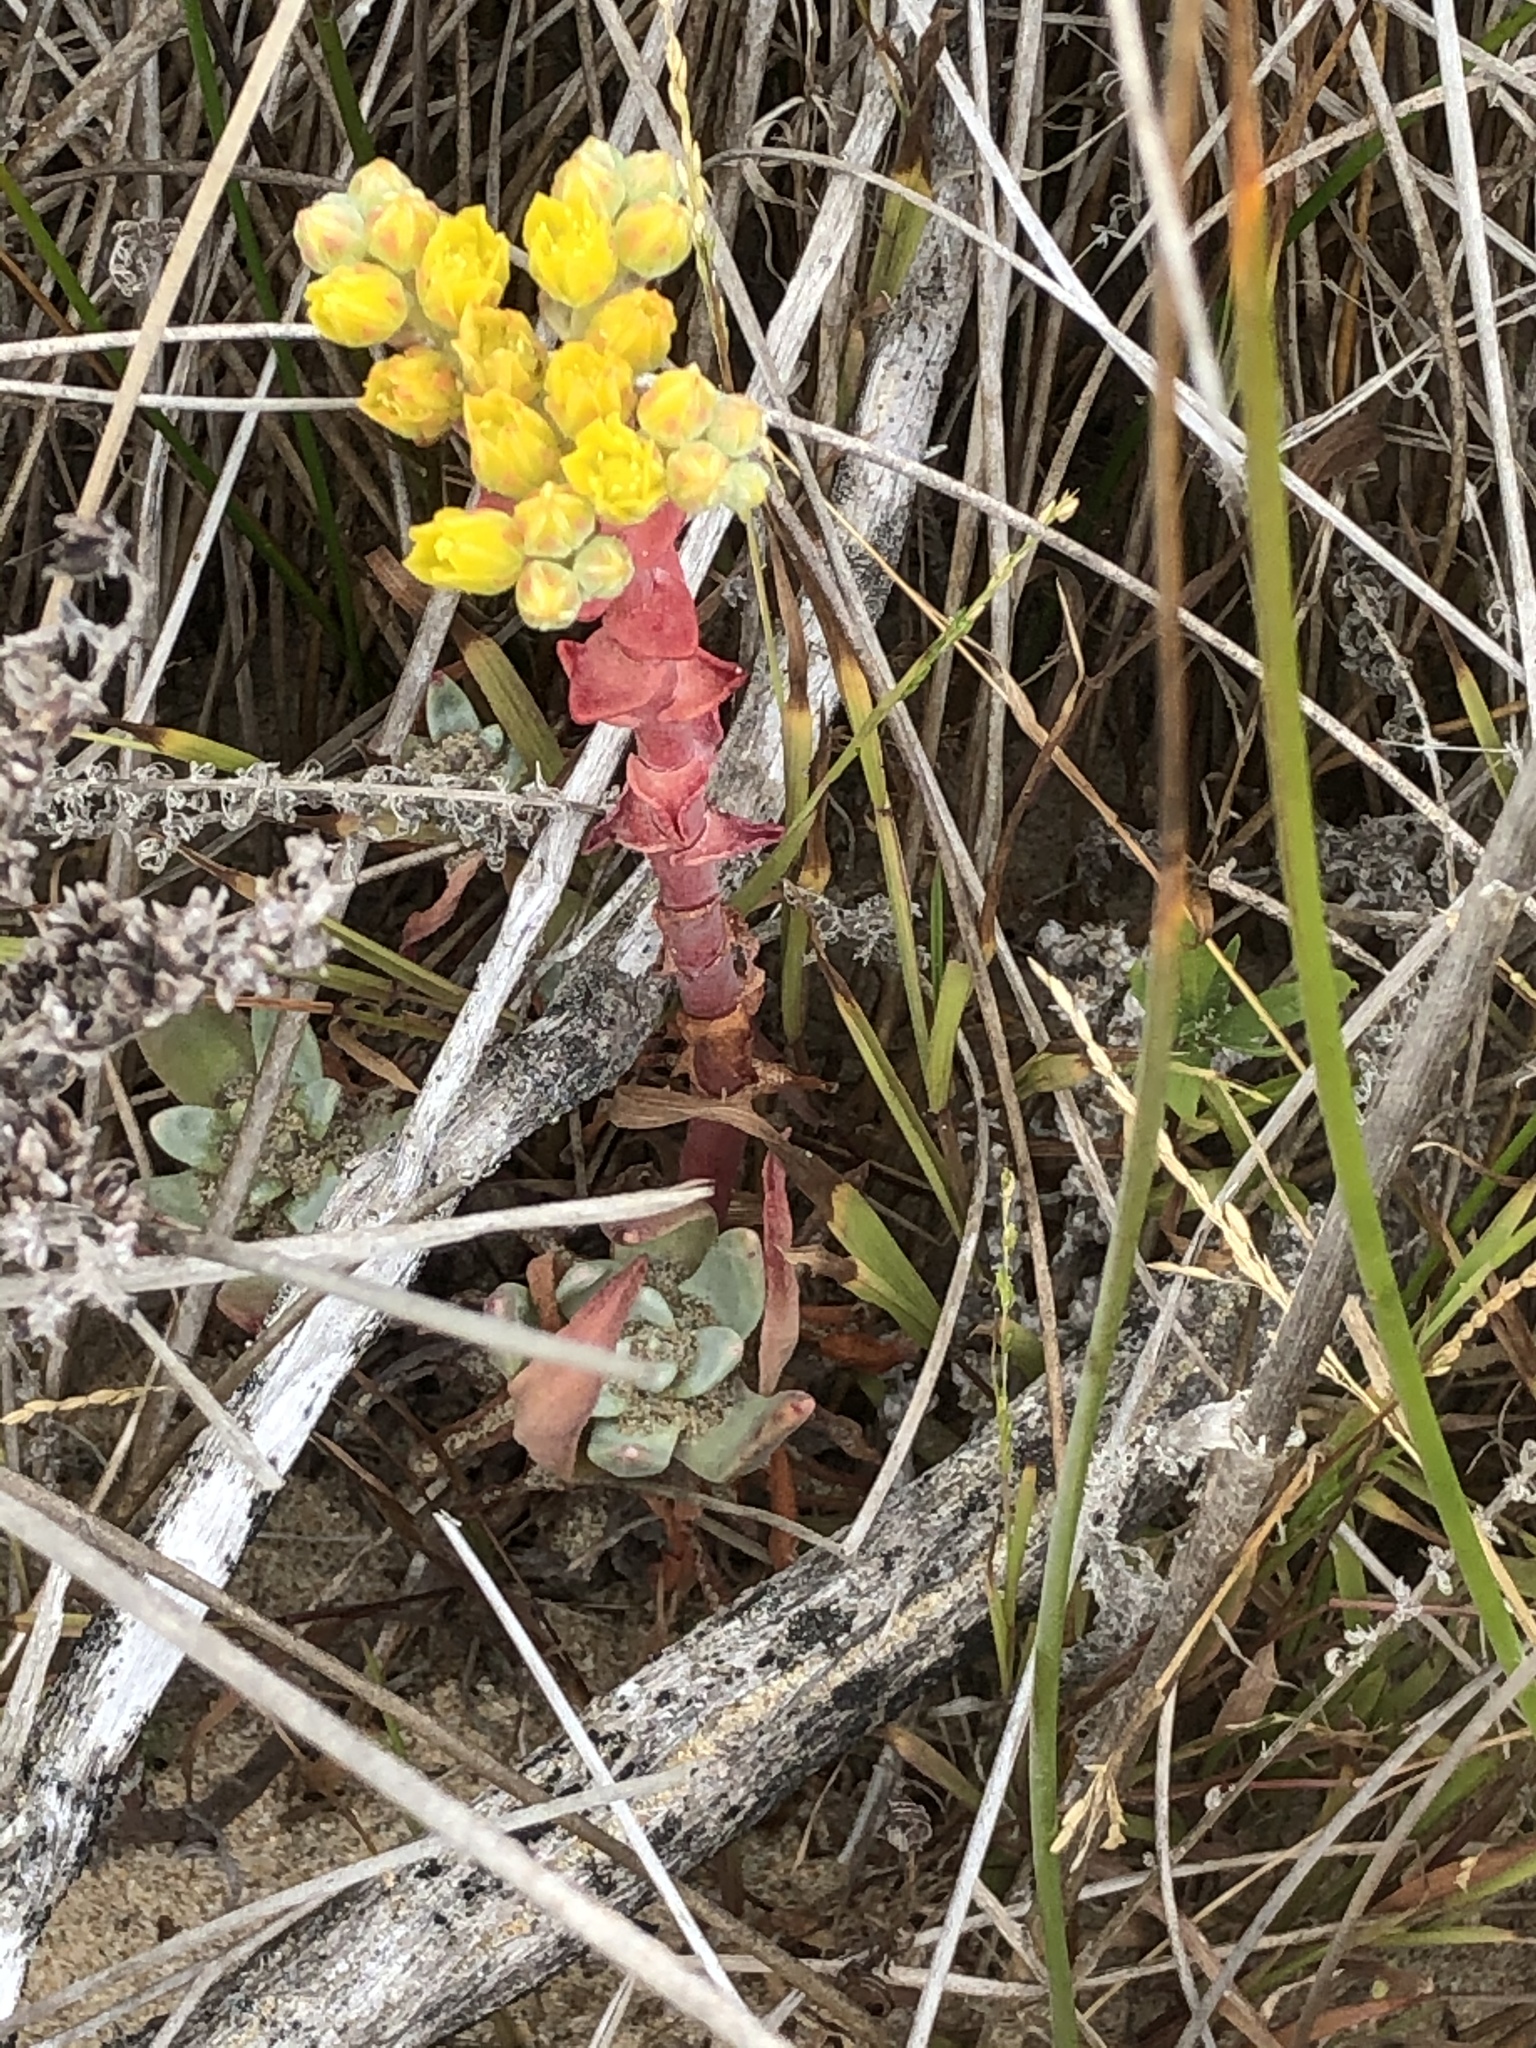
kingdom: Plantae
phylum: Tracheophyta
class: Magnoliopsida
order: Saxifragales
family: Crassulaceae
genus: Dudleya
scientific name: Dudleya caespitosa
